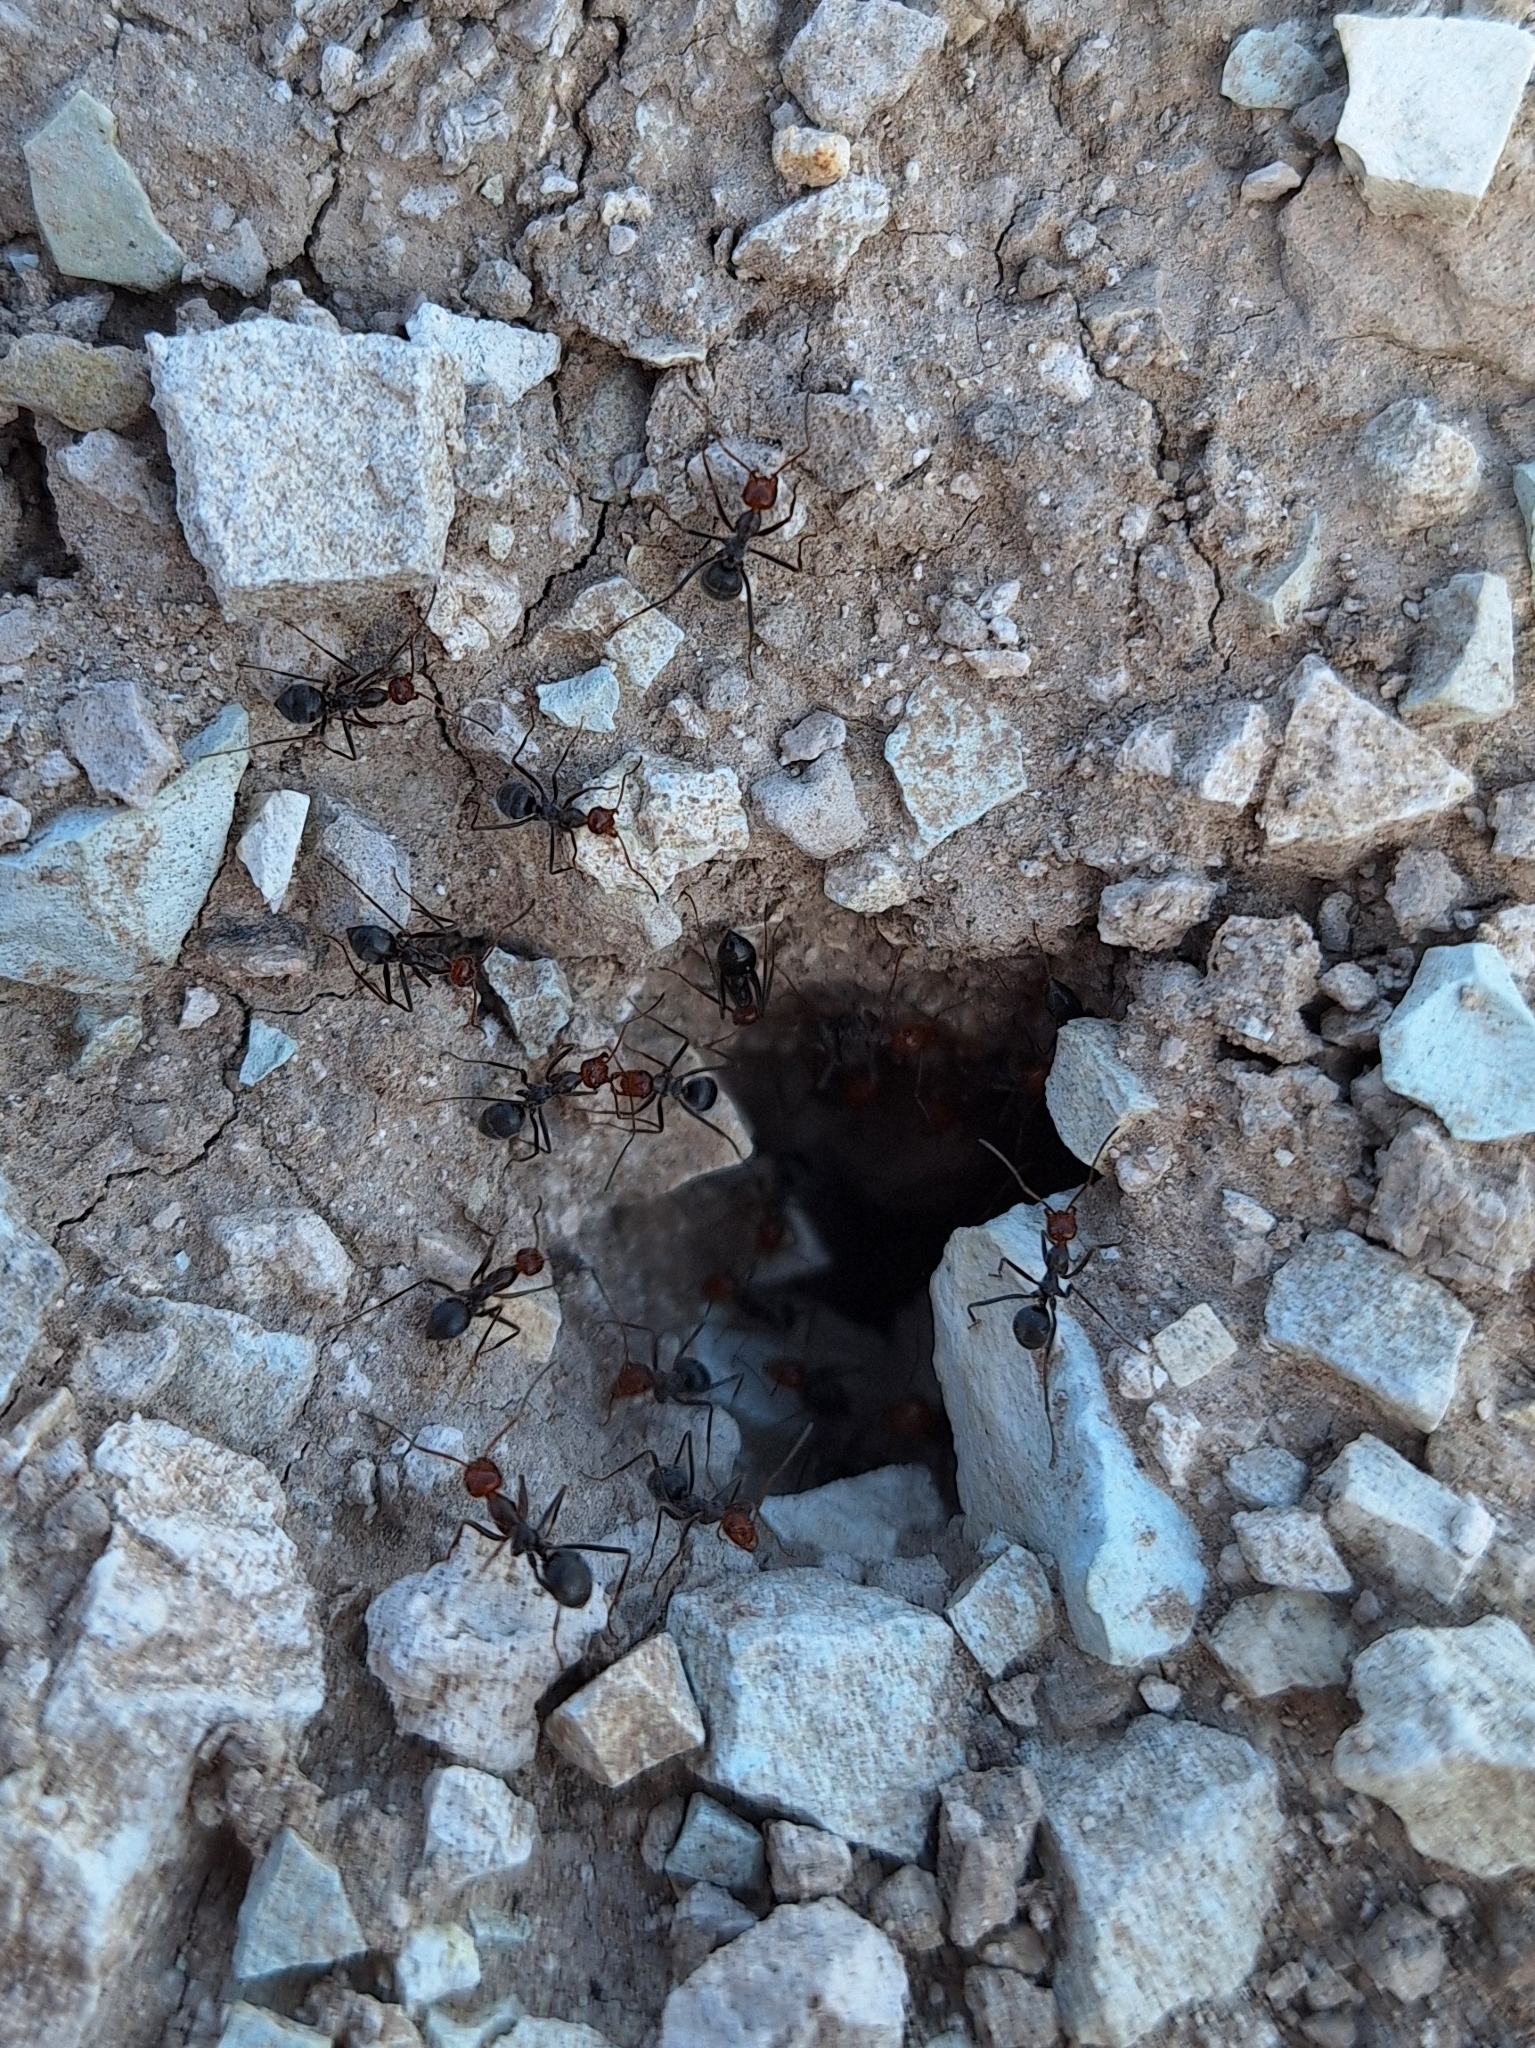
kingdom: Animalia
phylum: Arthropoda
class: Insecta
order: Hymenoptera
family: Formicidae
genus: Myrmecocystus
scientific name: Myrmecocystus placodops
